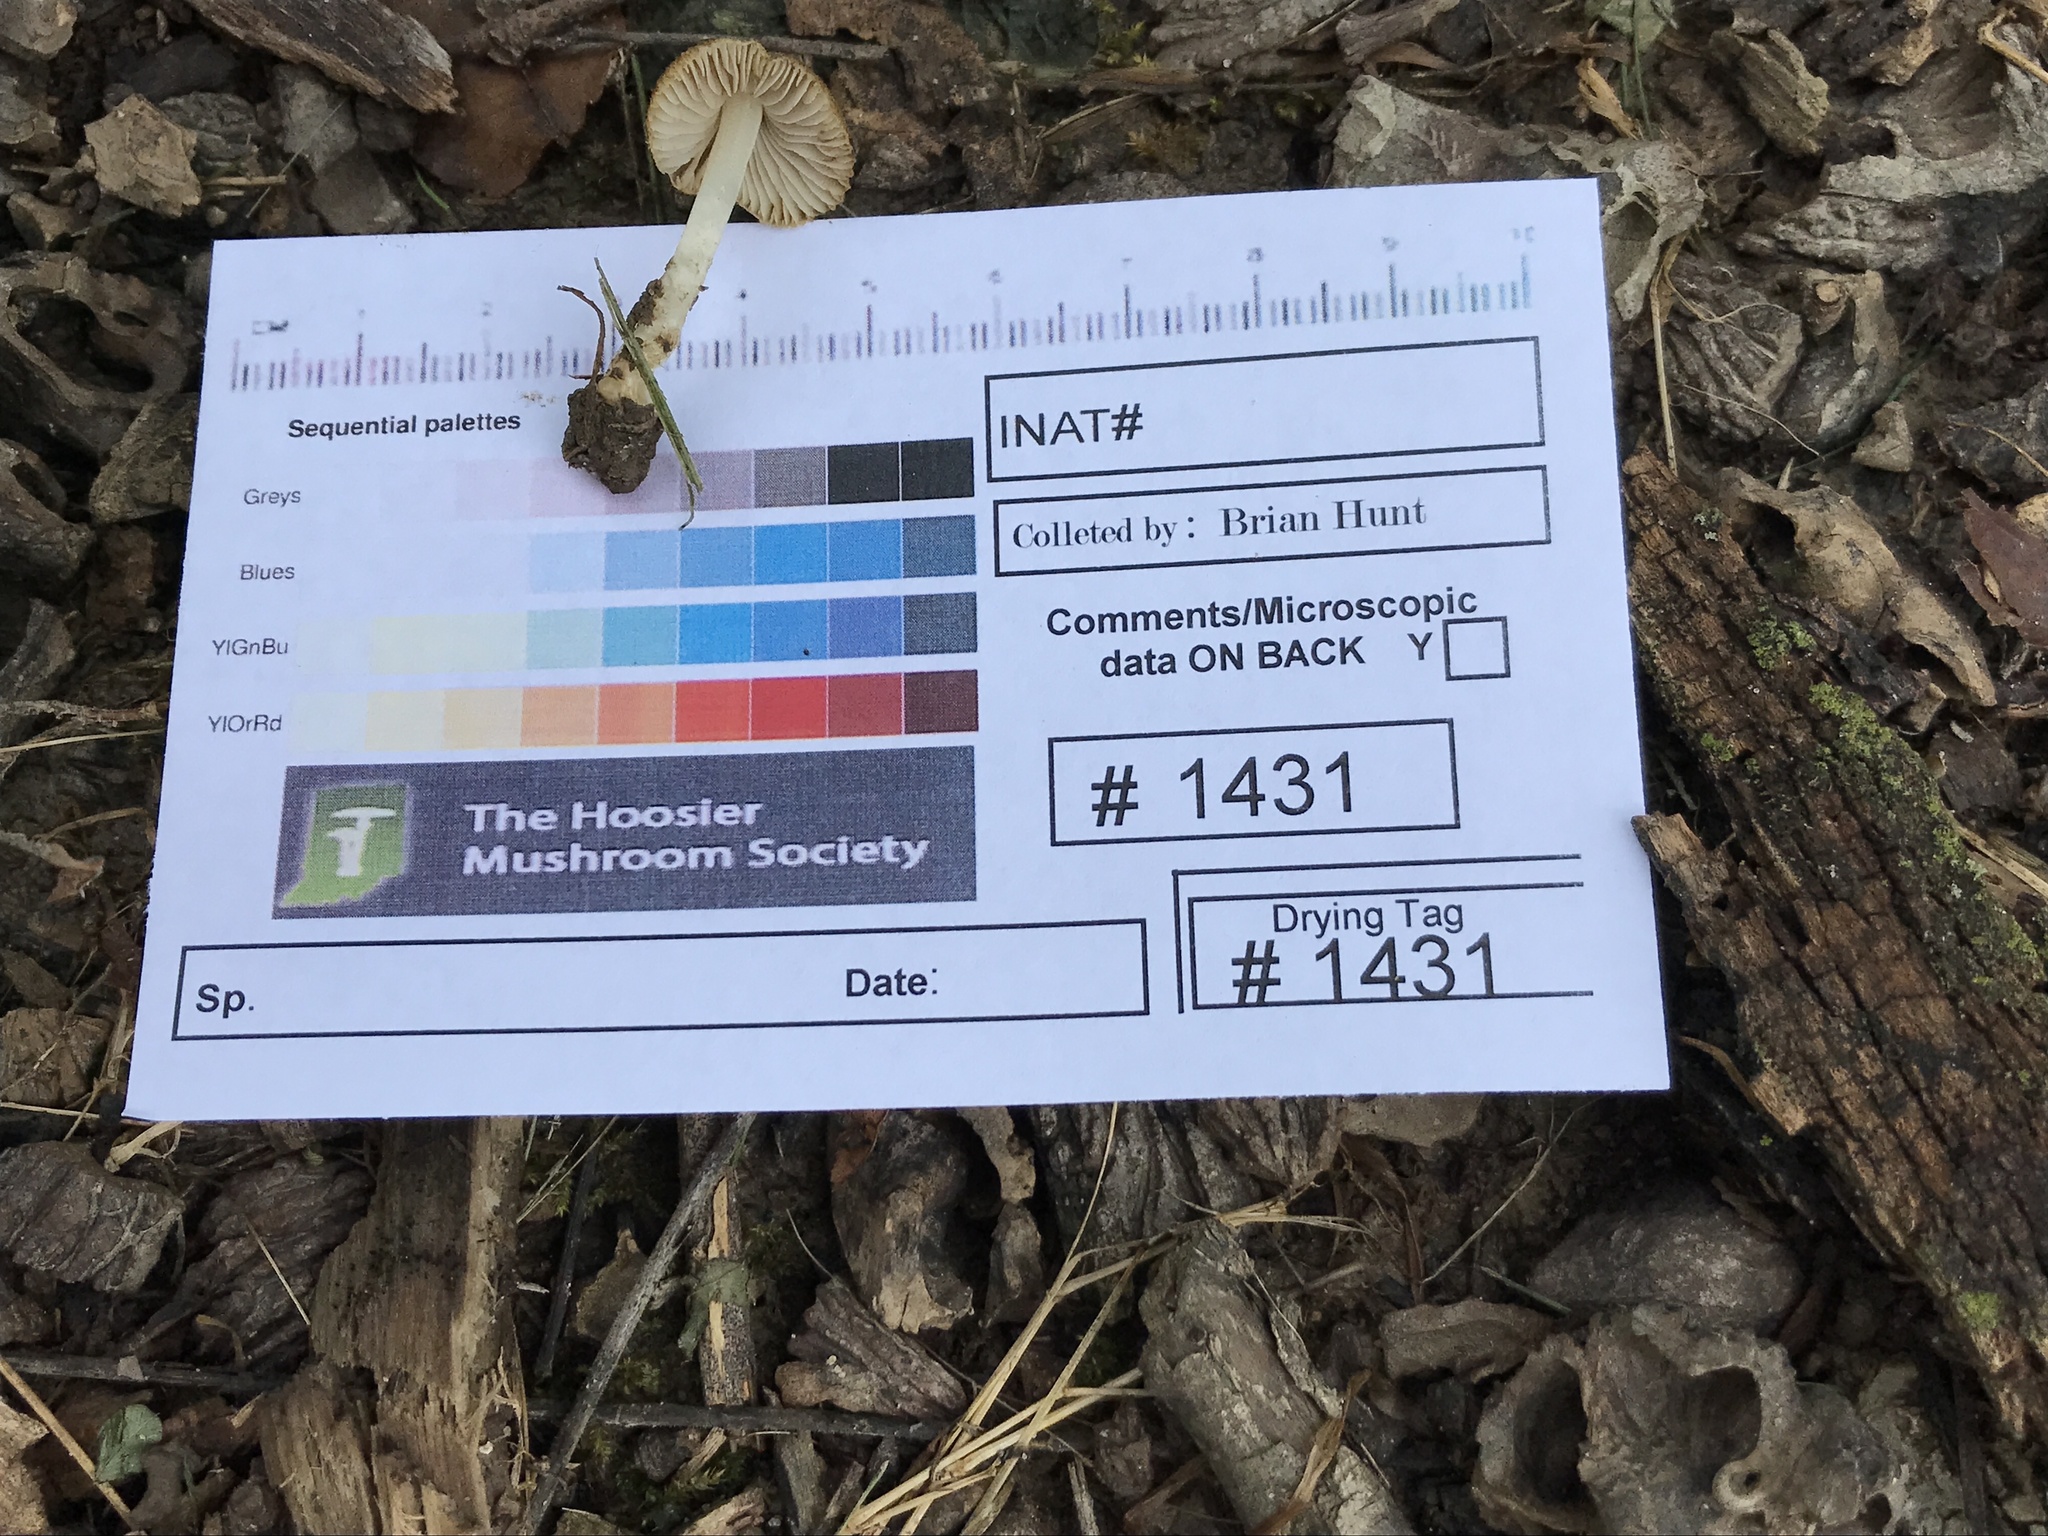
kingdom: Fungi
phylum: Basidiomycota
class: Agaricomycetes
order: Agaricales
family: Inocybaceae
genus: Inocybe
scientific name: Inocybe margaritispora
